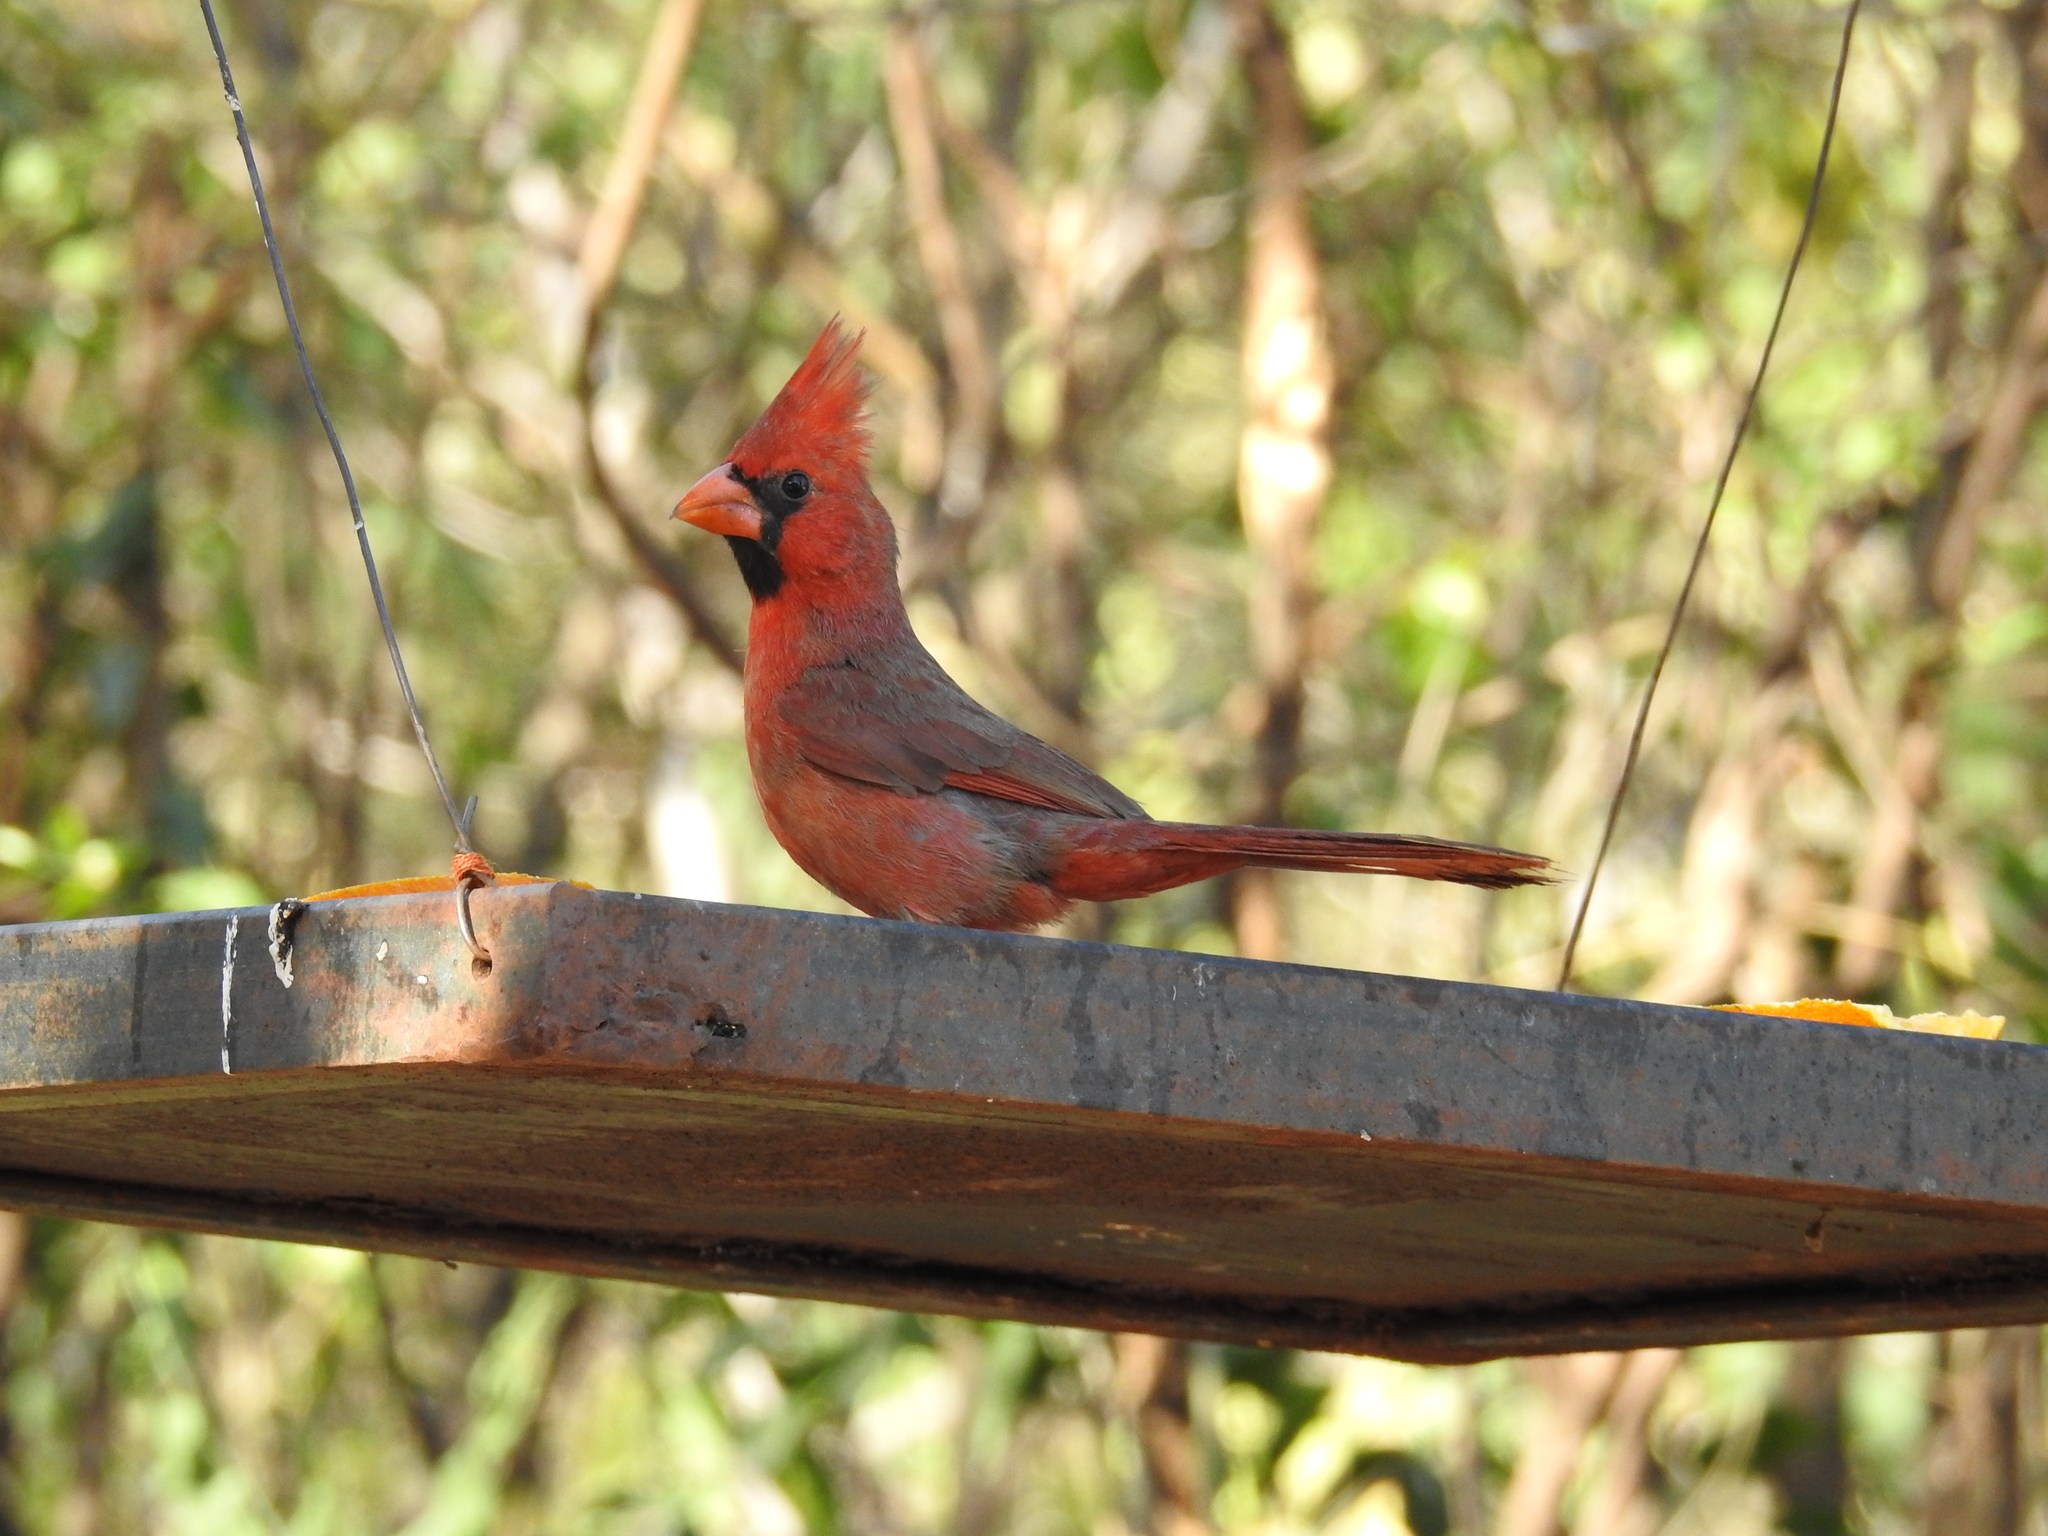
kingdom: Animalia
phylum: Chordata
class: Aves
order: Passeriformes
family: Cardinalidae
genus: Cardinalis
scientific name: Cardinalis cardinalis
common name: Northern cardinal
